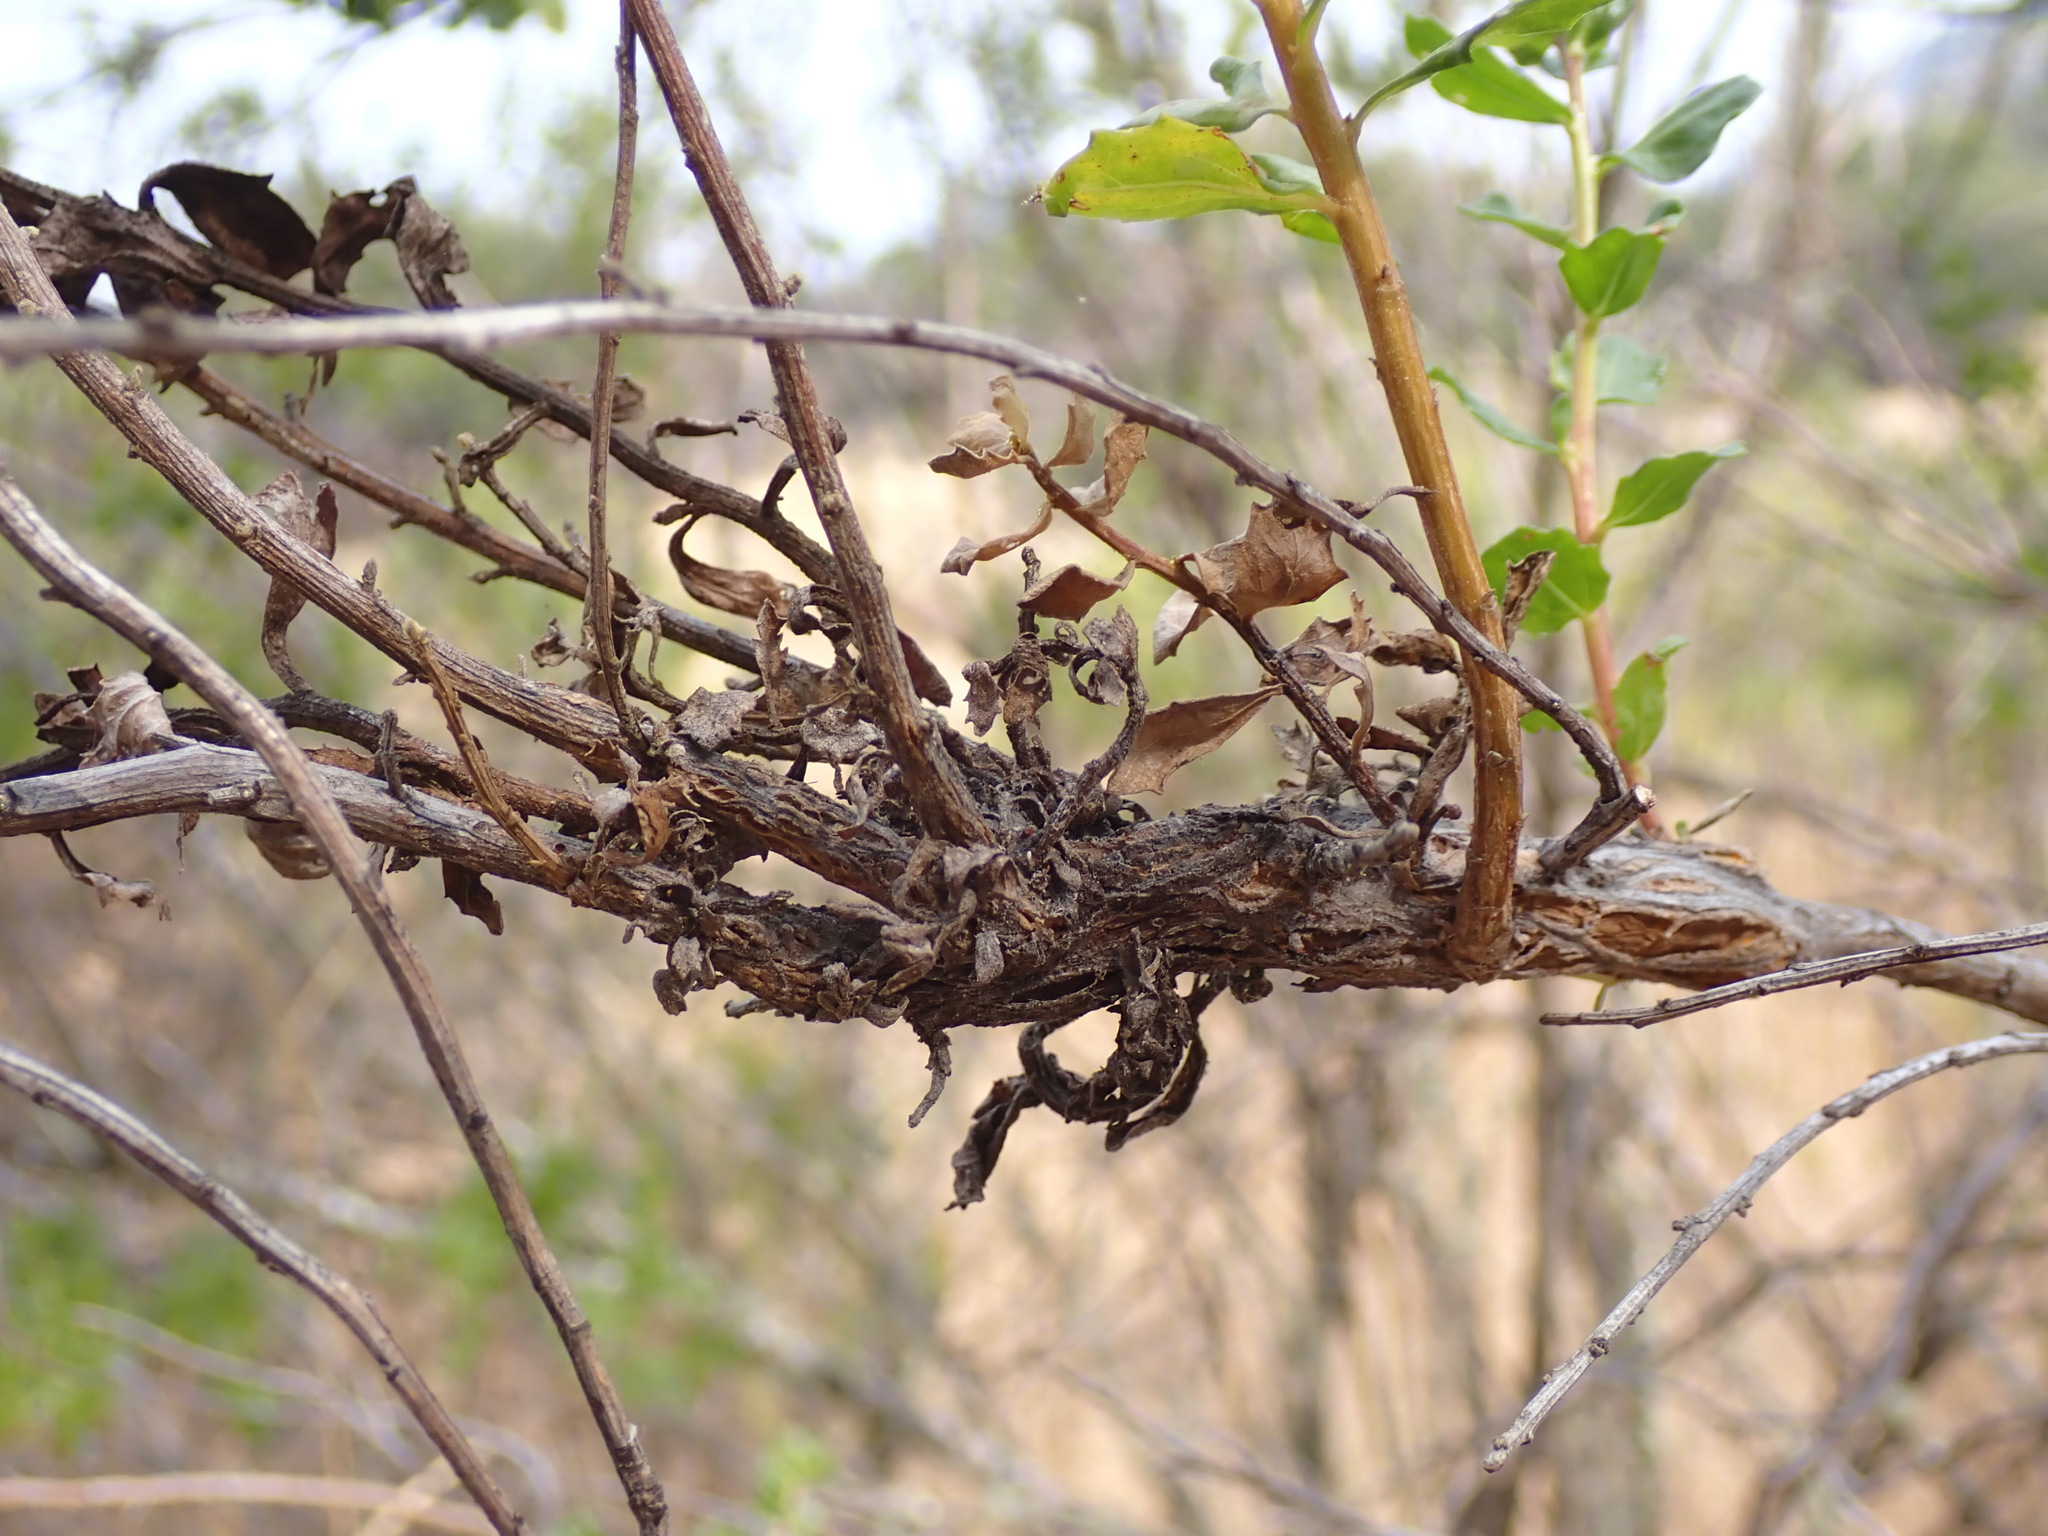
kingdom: Fungi
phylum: Basidiomycota
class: Pucciniomycetes
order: Pucciniales
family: Pucciniaceae
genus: Eriosporangium
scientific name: Eriosporangium evadens
